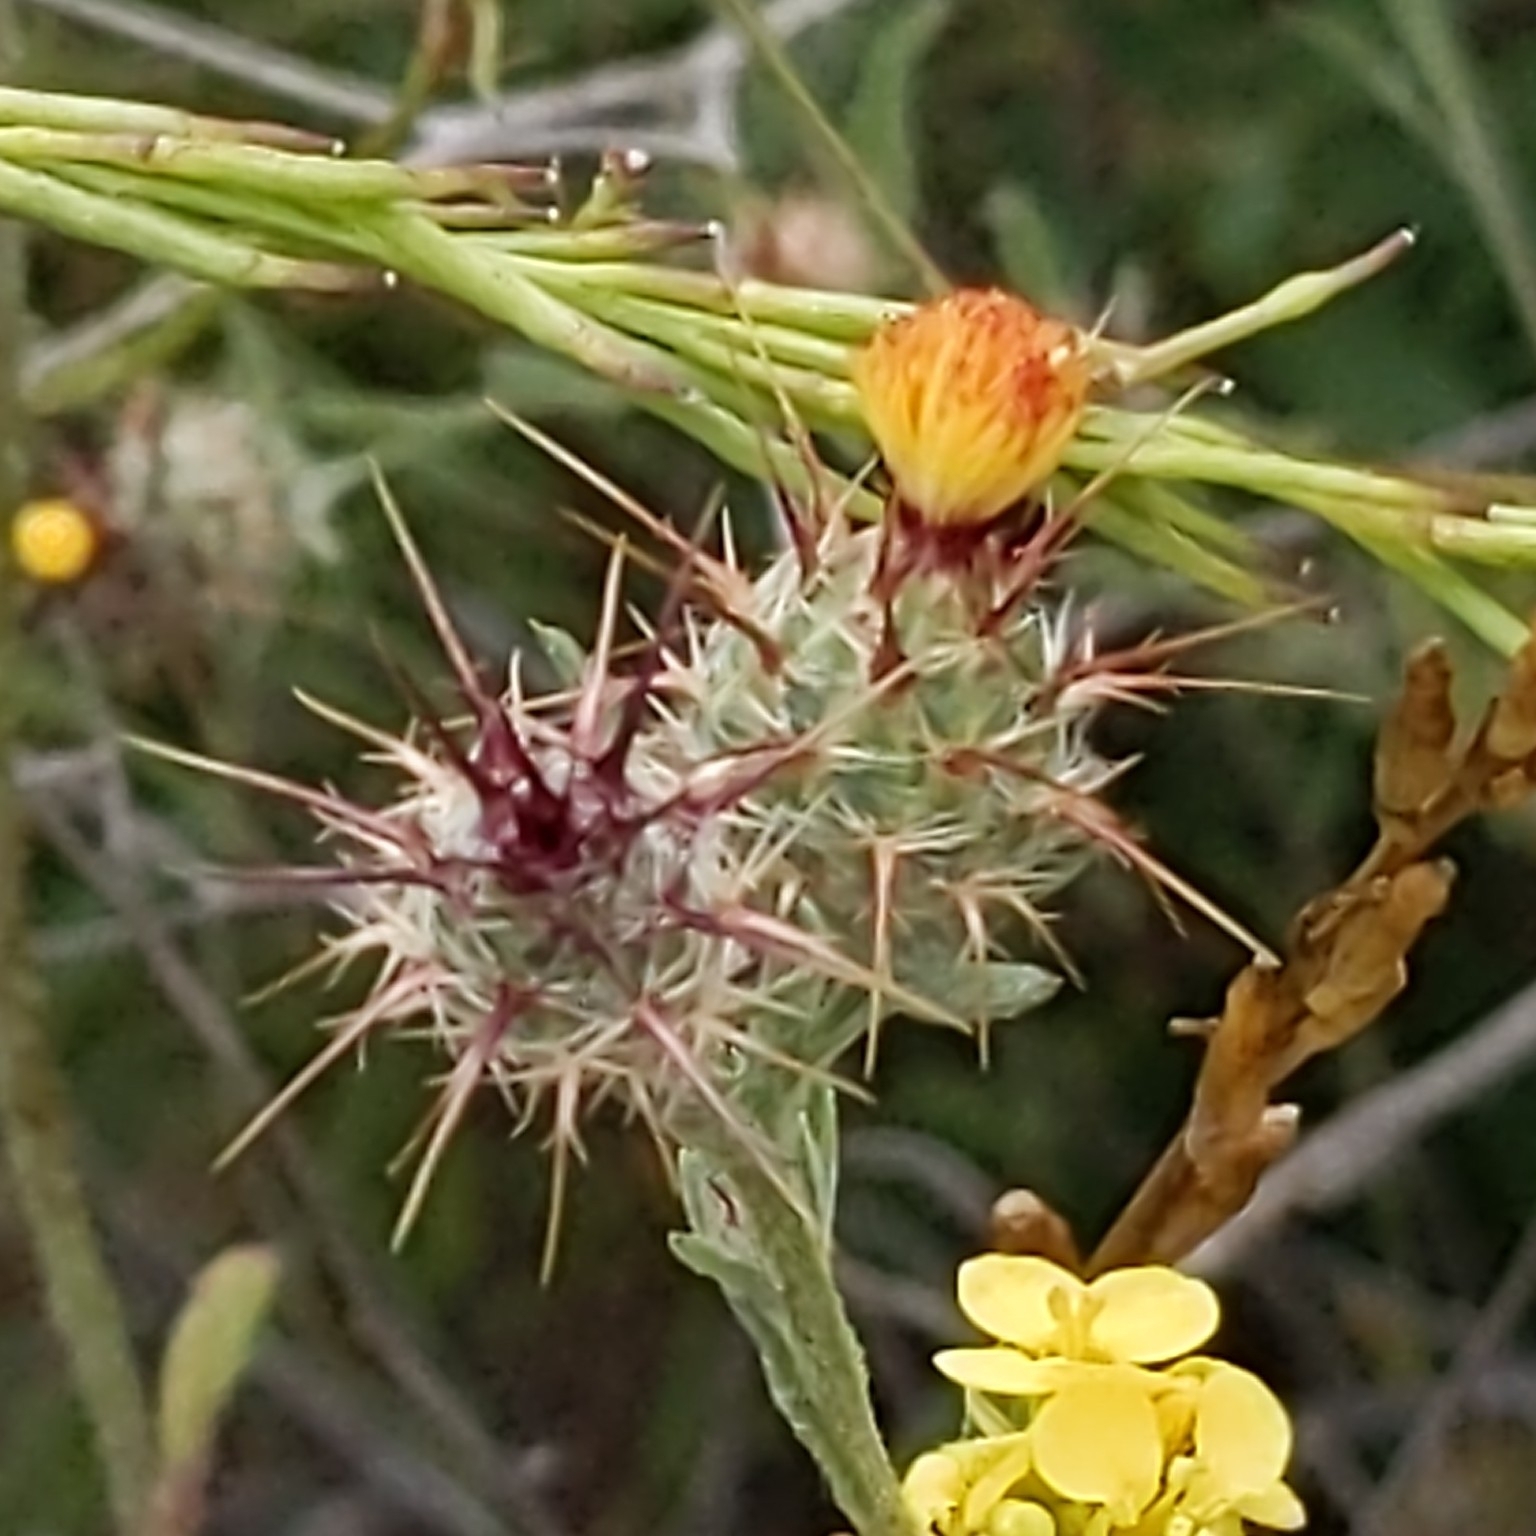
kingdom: Plantae
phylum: Tracheophyta
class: Magnoliopsida
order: Asterales
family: Asteraceae
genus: Centaurea
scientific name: Centaurea melitensis
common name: Maltese star-thistle
